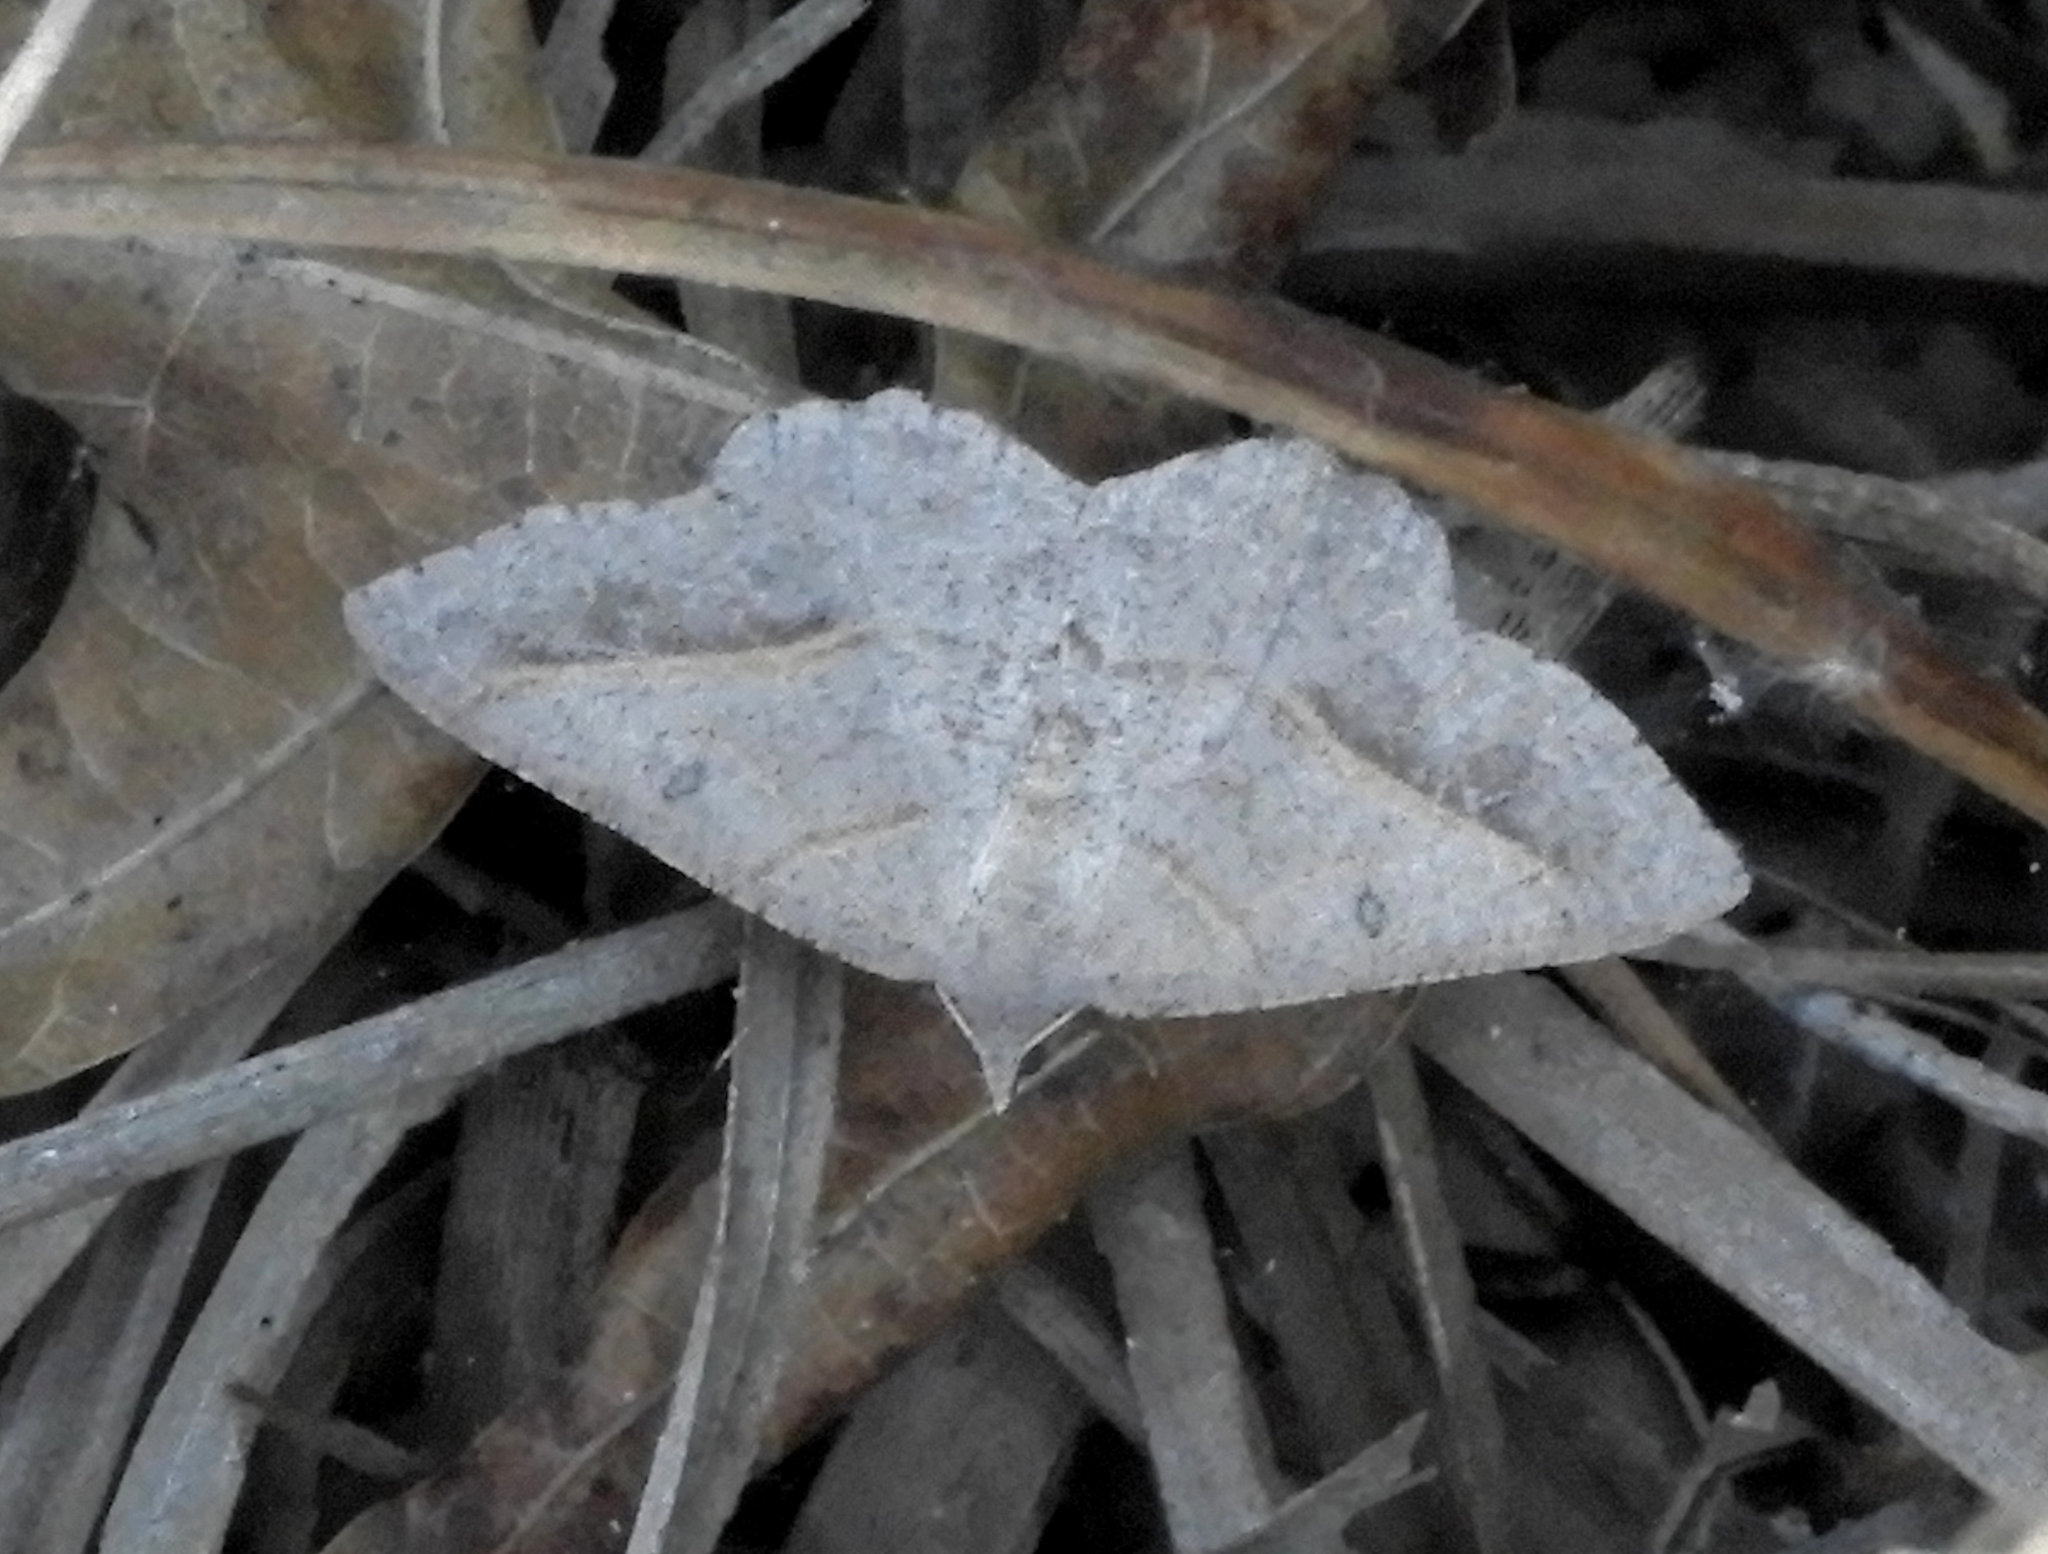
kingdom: Animalia
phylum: Arthropoda
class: Insecta
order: Lepidoptera
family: Geometridae
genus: Digrammia
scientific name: Digrammia neptaria
